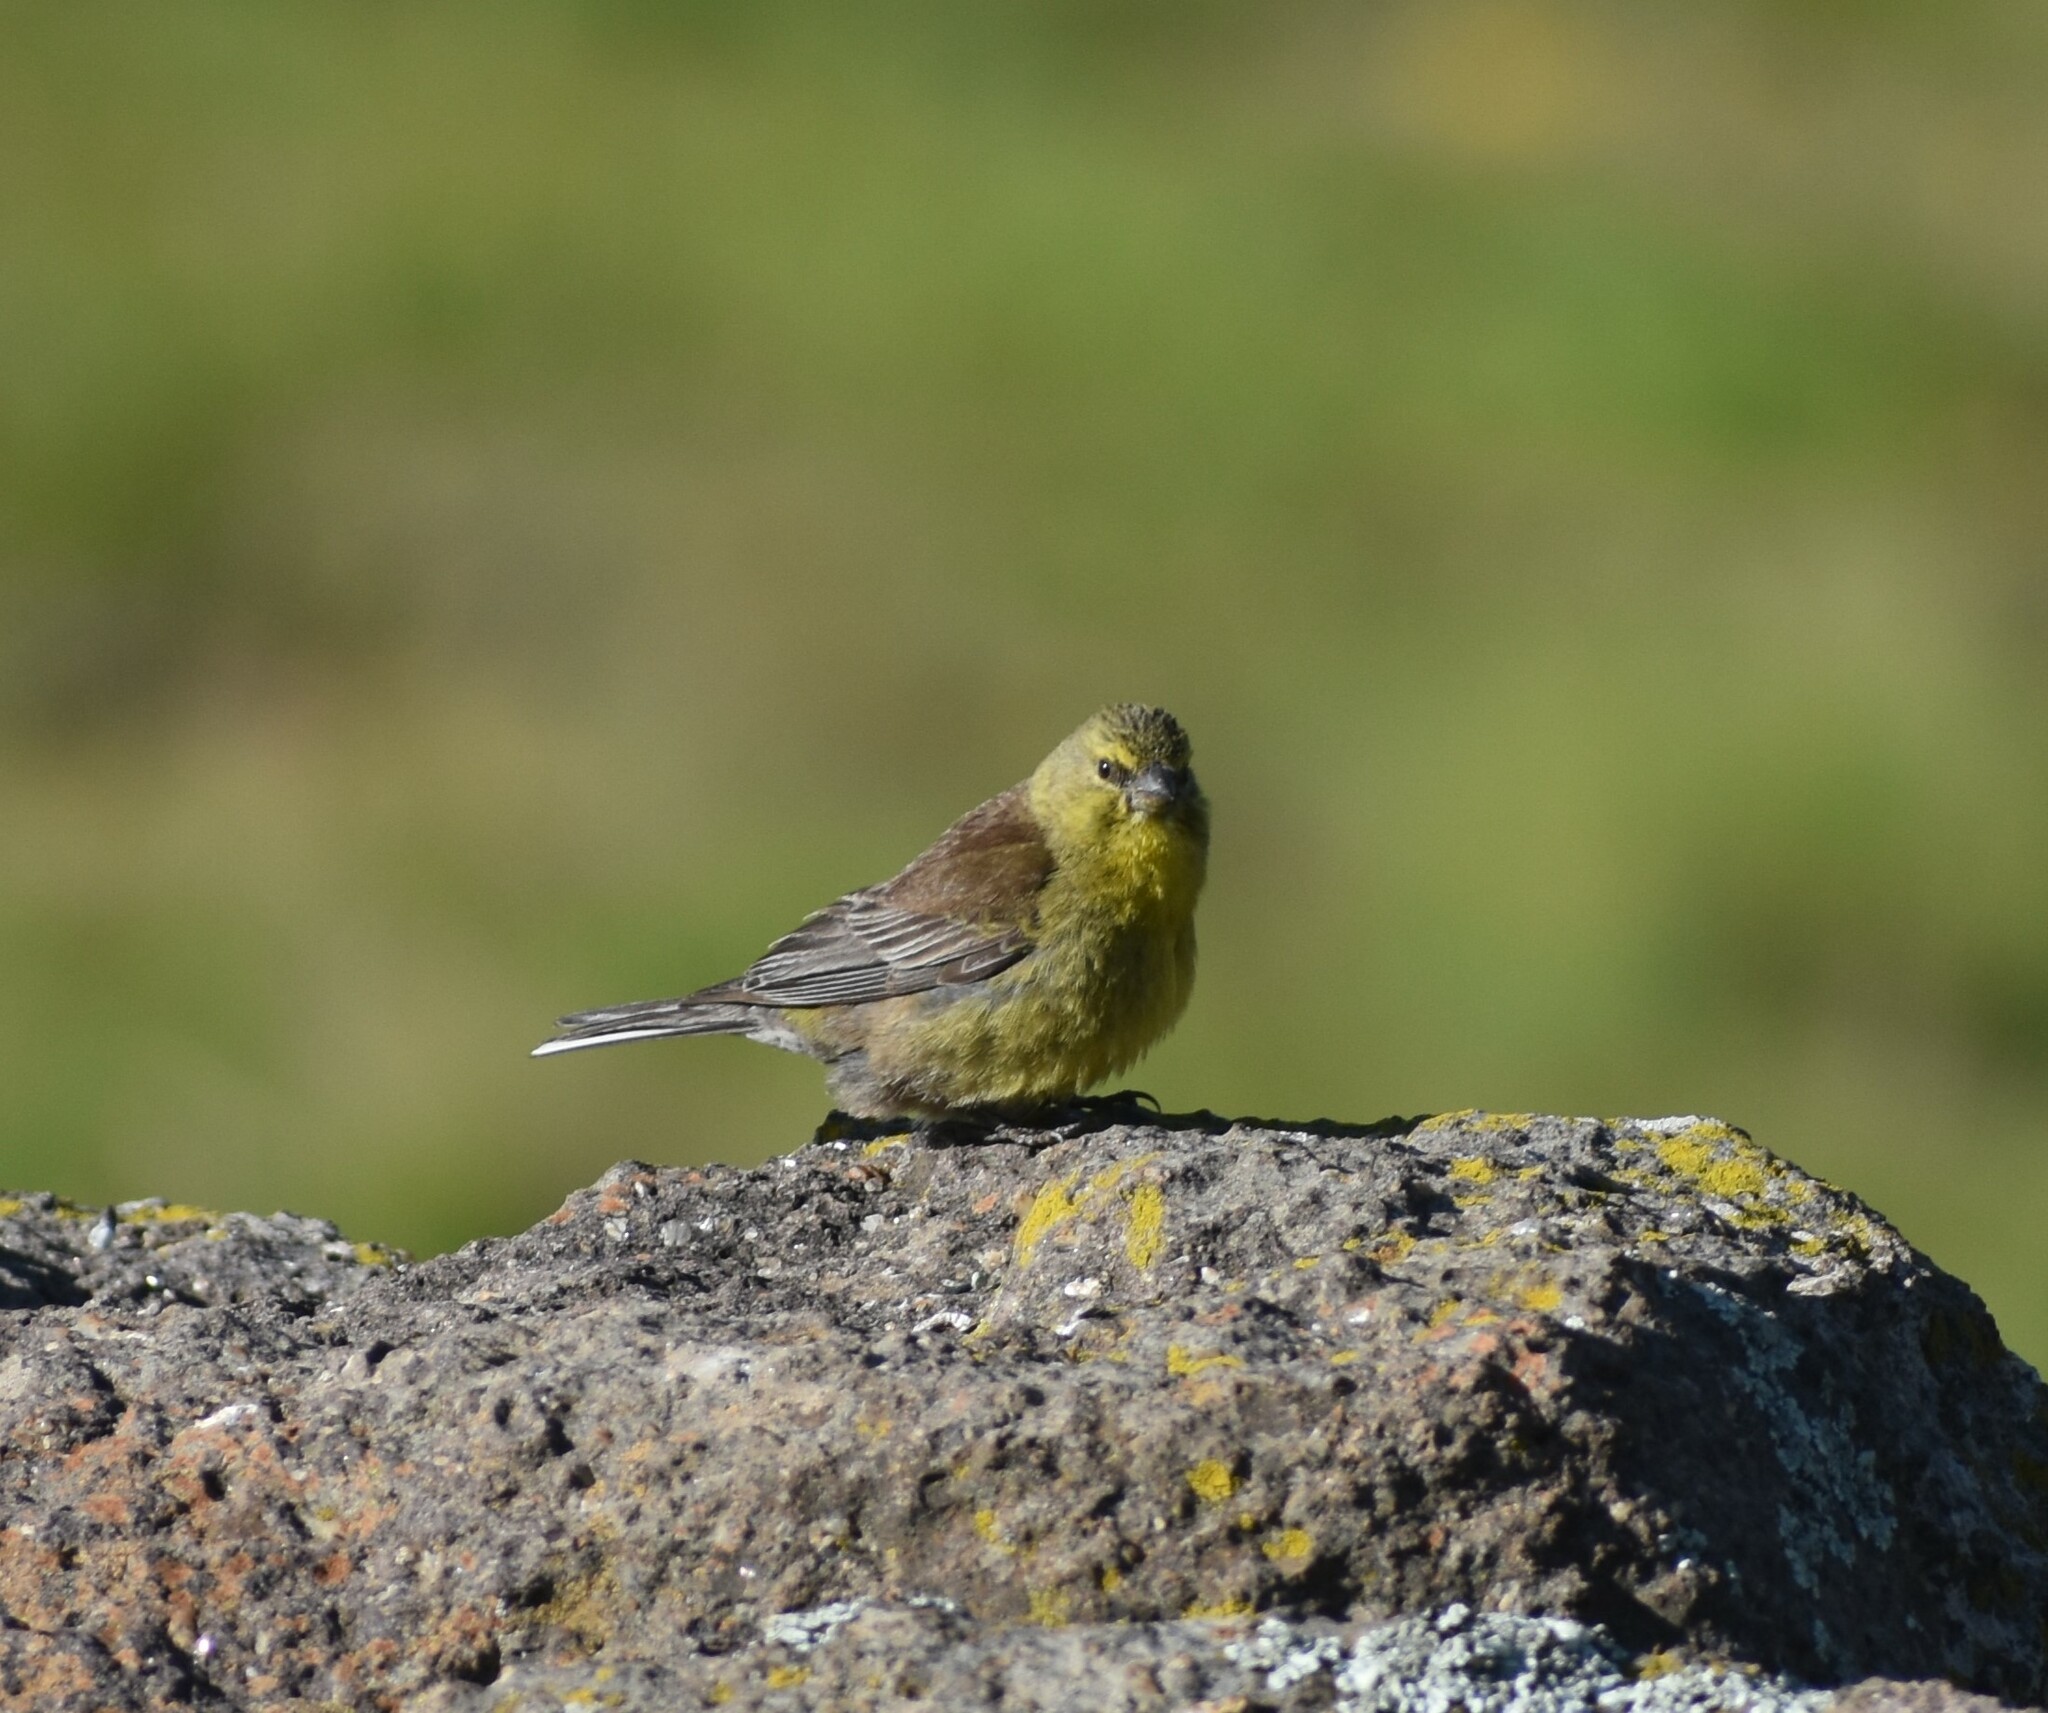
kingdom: Animalia
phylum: Chordata
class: Aves
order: Passeriformes
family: Fringillidae
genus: Crithagra
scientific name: Crithagra symonsi
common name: Drakensberg siskin
